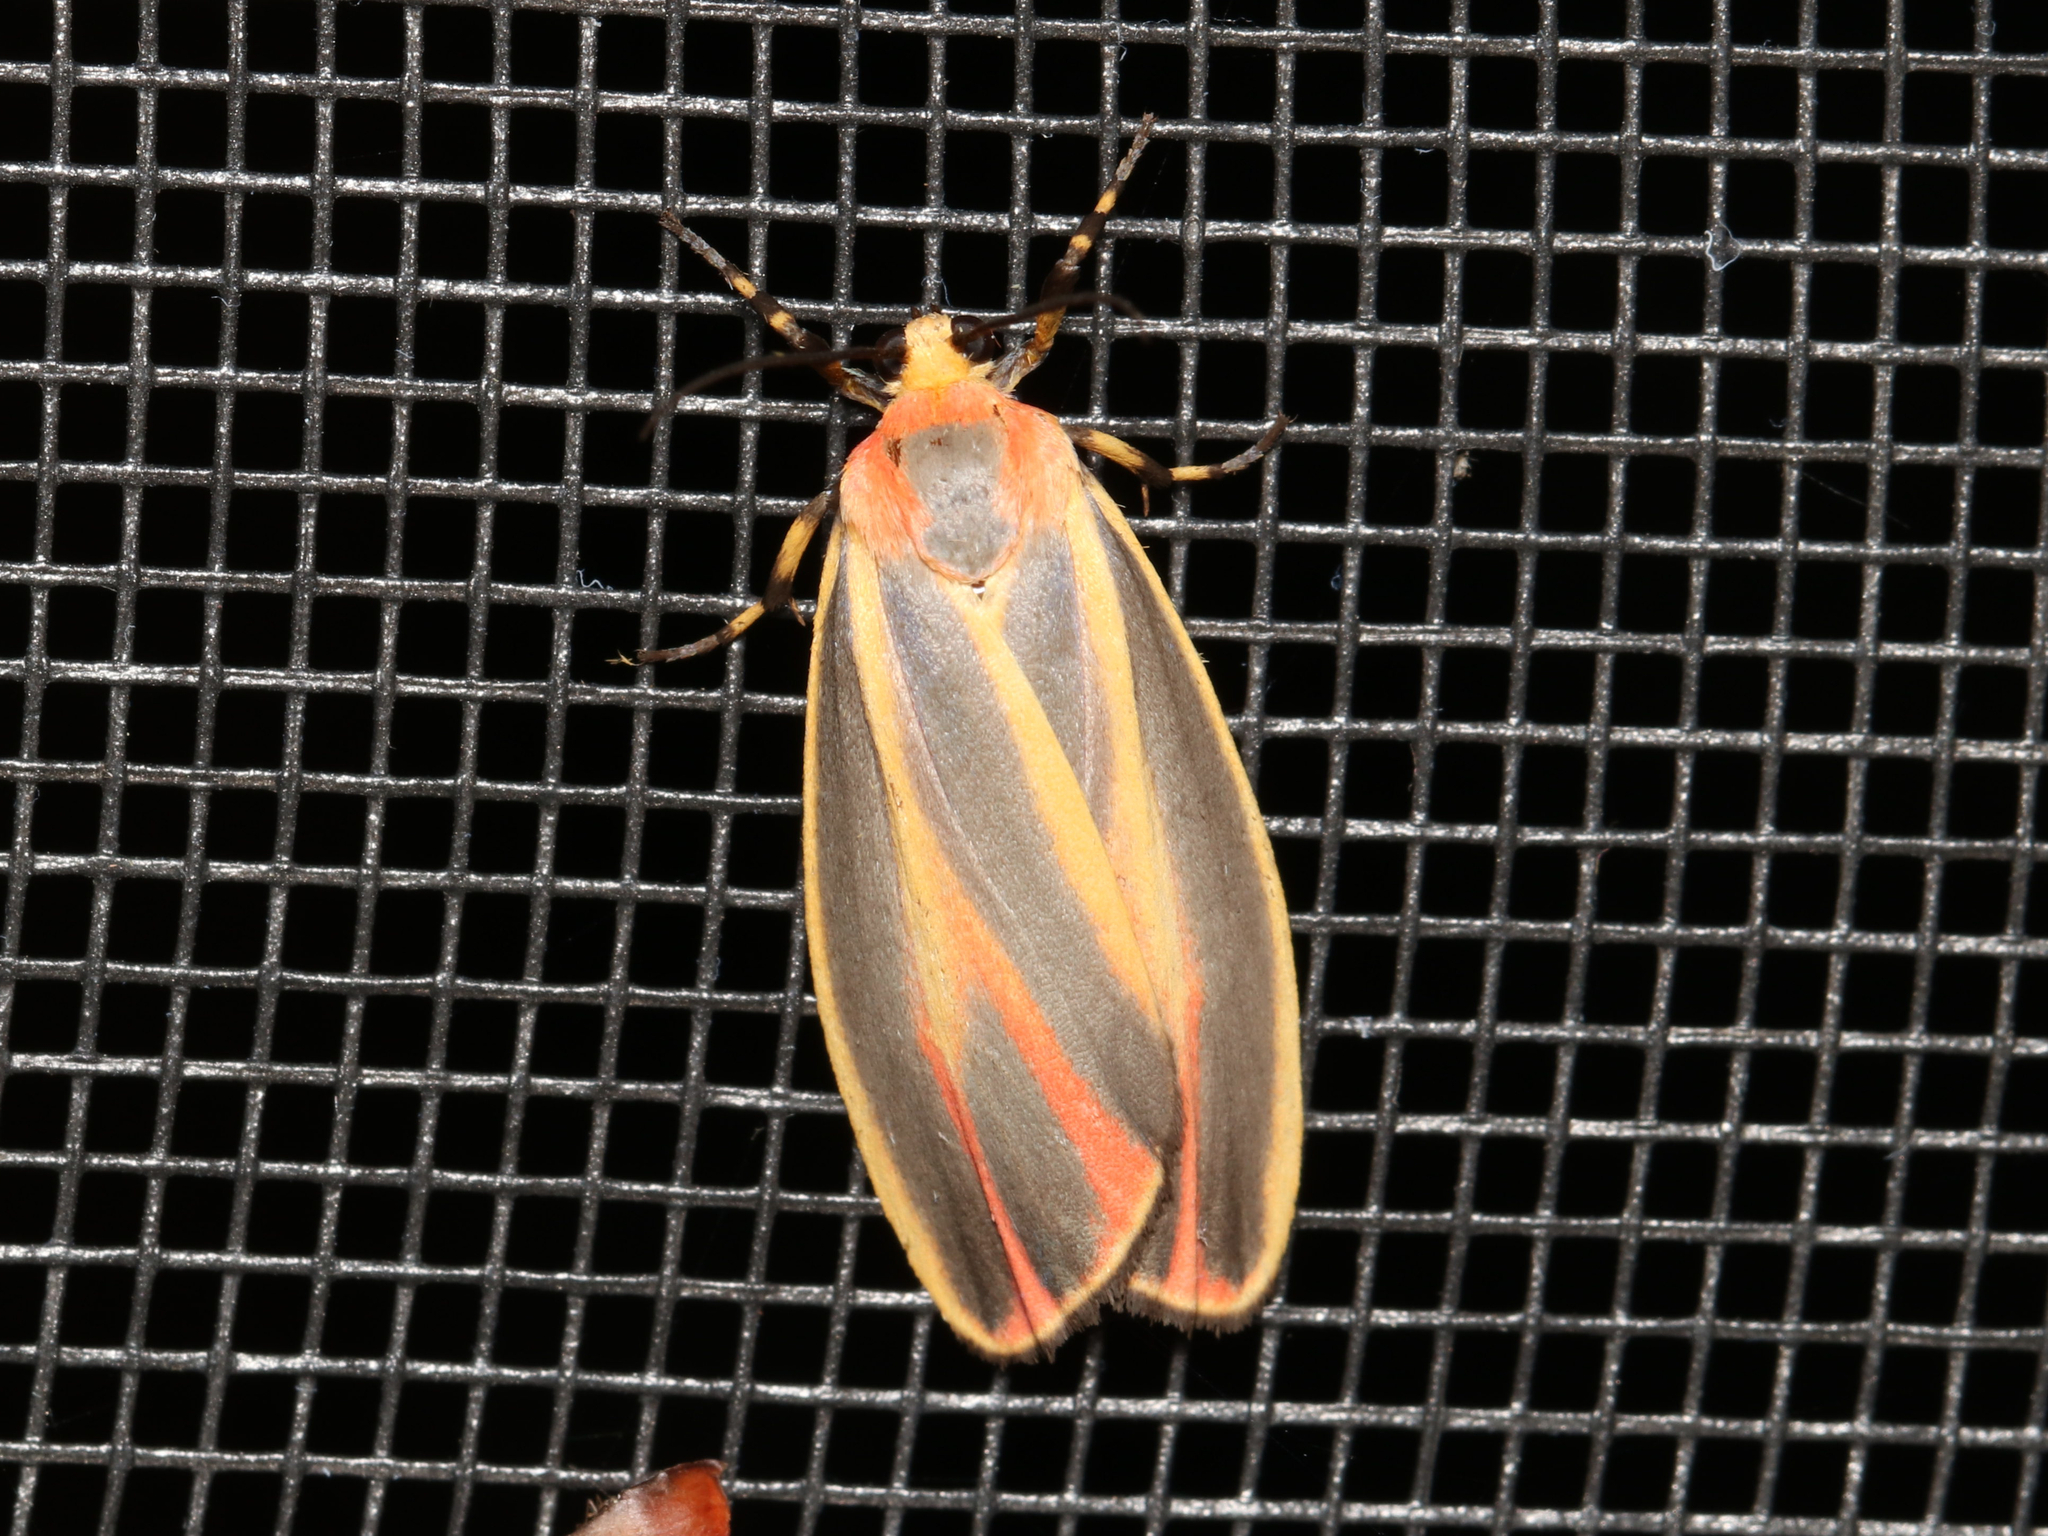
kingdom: Animalia
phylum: Arthropoda
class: Insecta
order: Lepidoptera
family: Erebidae
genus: Hypoprepia
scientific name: Hypoprepia fucosa
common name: Painted lichen moth
